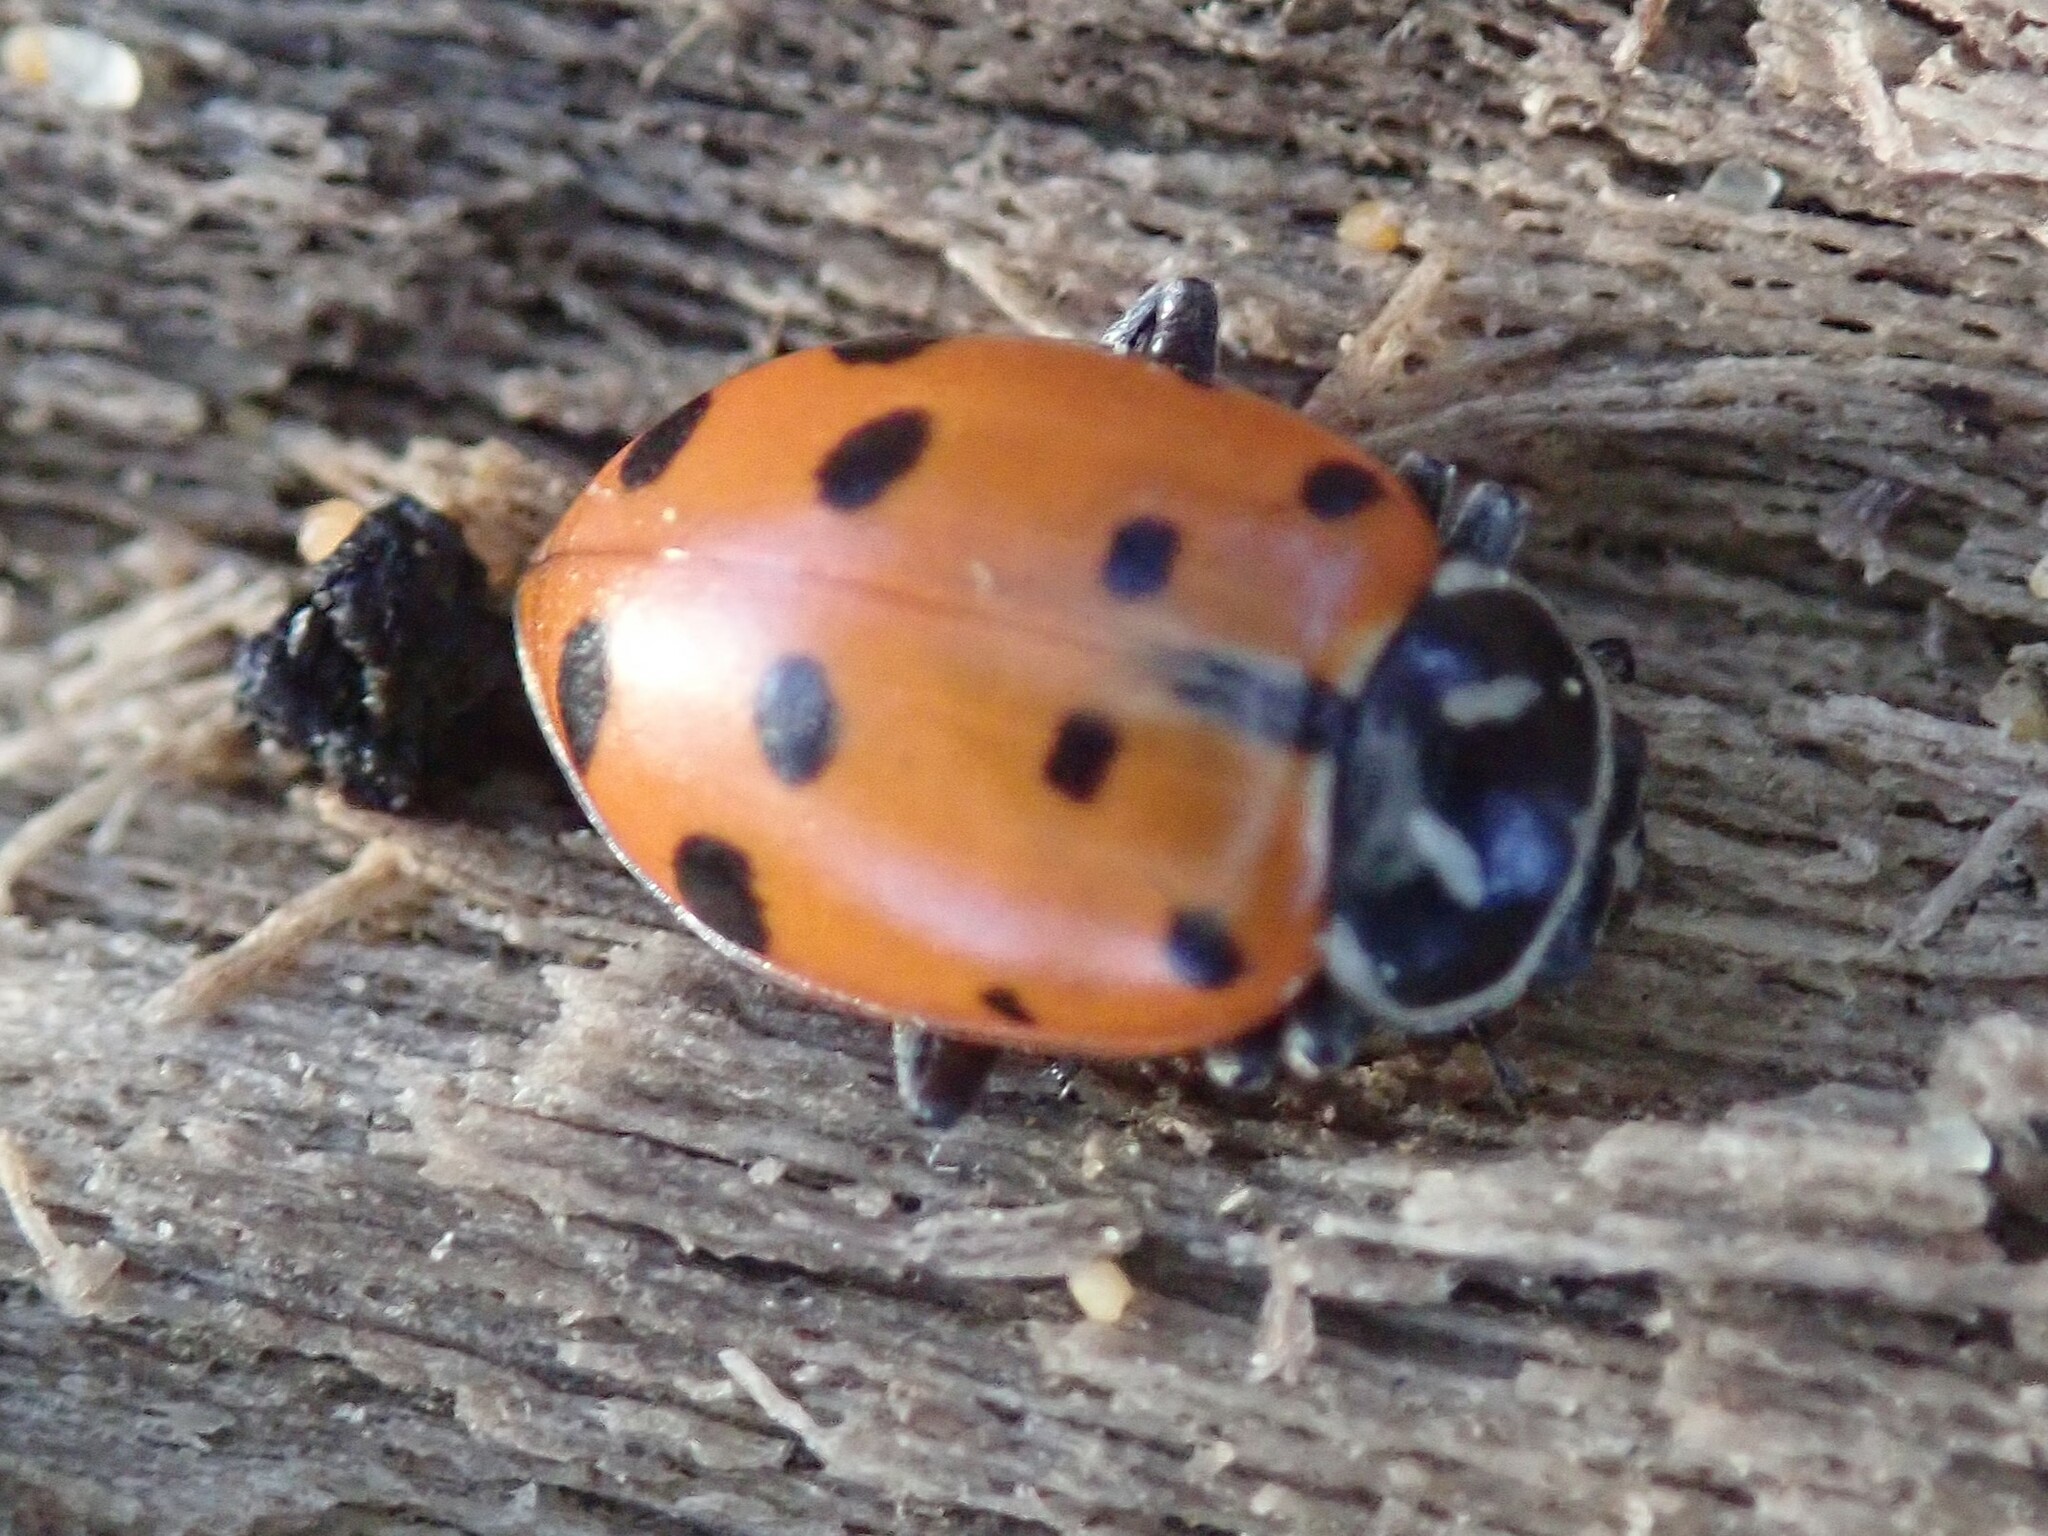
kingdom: Animalia
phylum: Arthropoda
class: Insecta
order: Coleoptera
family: Coccinellidae
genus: Hippodamia
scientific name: Hippodamia convergens
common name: Convergent lady beetle
